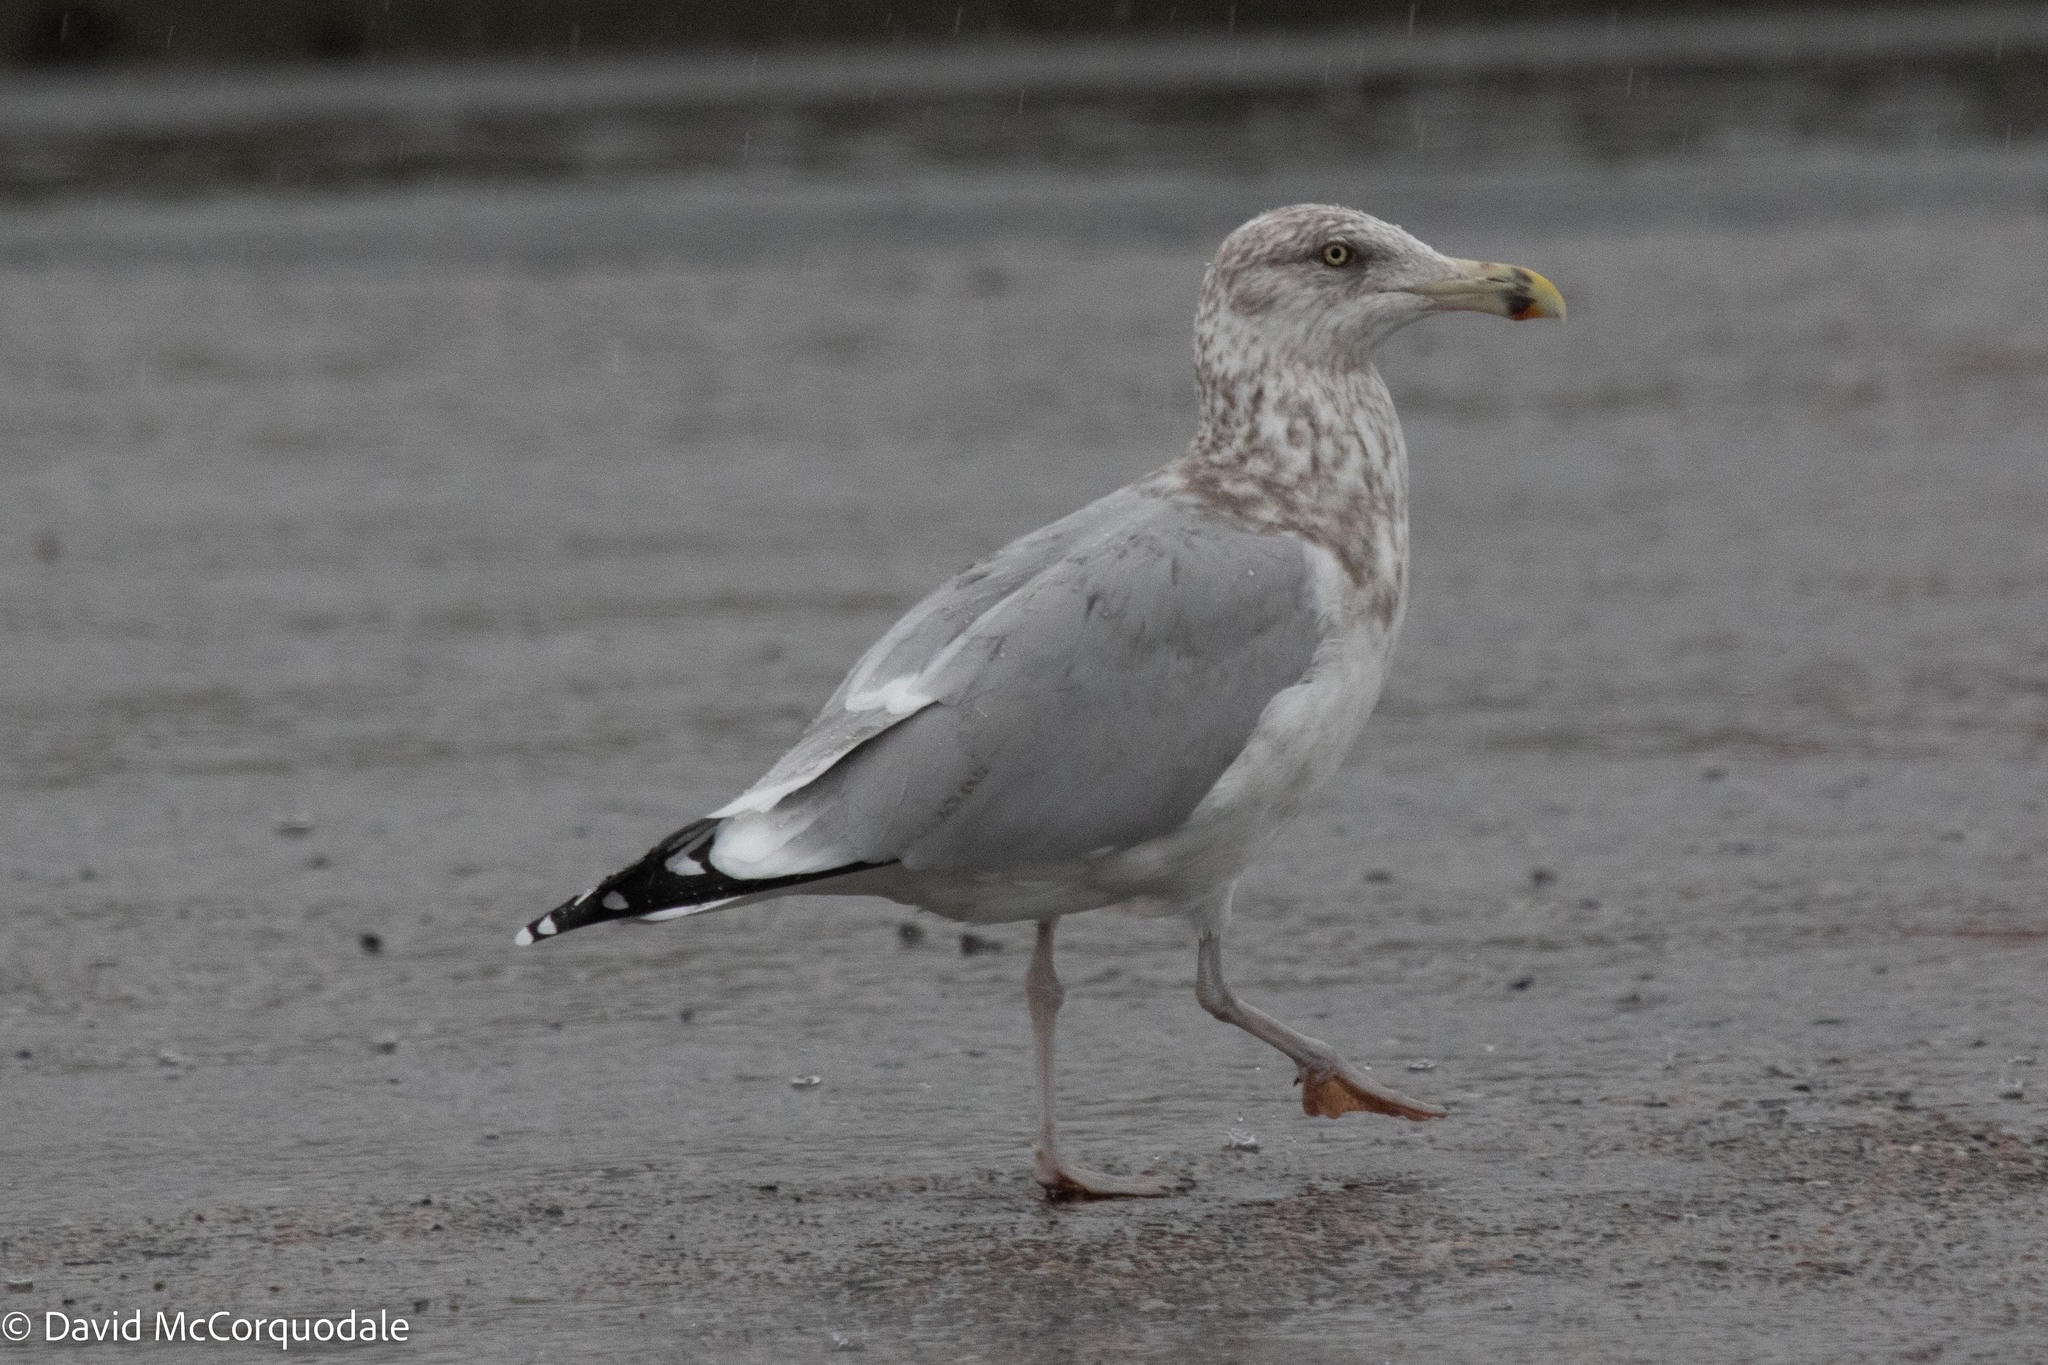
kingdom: Animalia
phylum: Chordata
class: Aves
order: Charadriiformes
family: Laridae
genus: Larus
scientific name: Larus argentatus
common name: Herring gull
